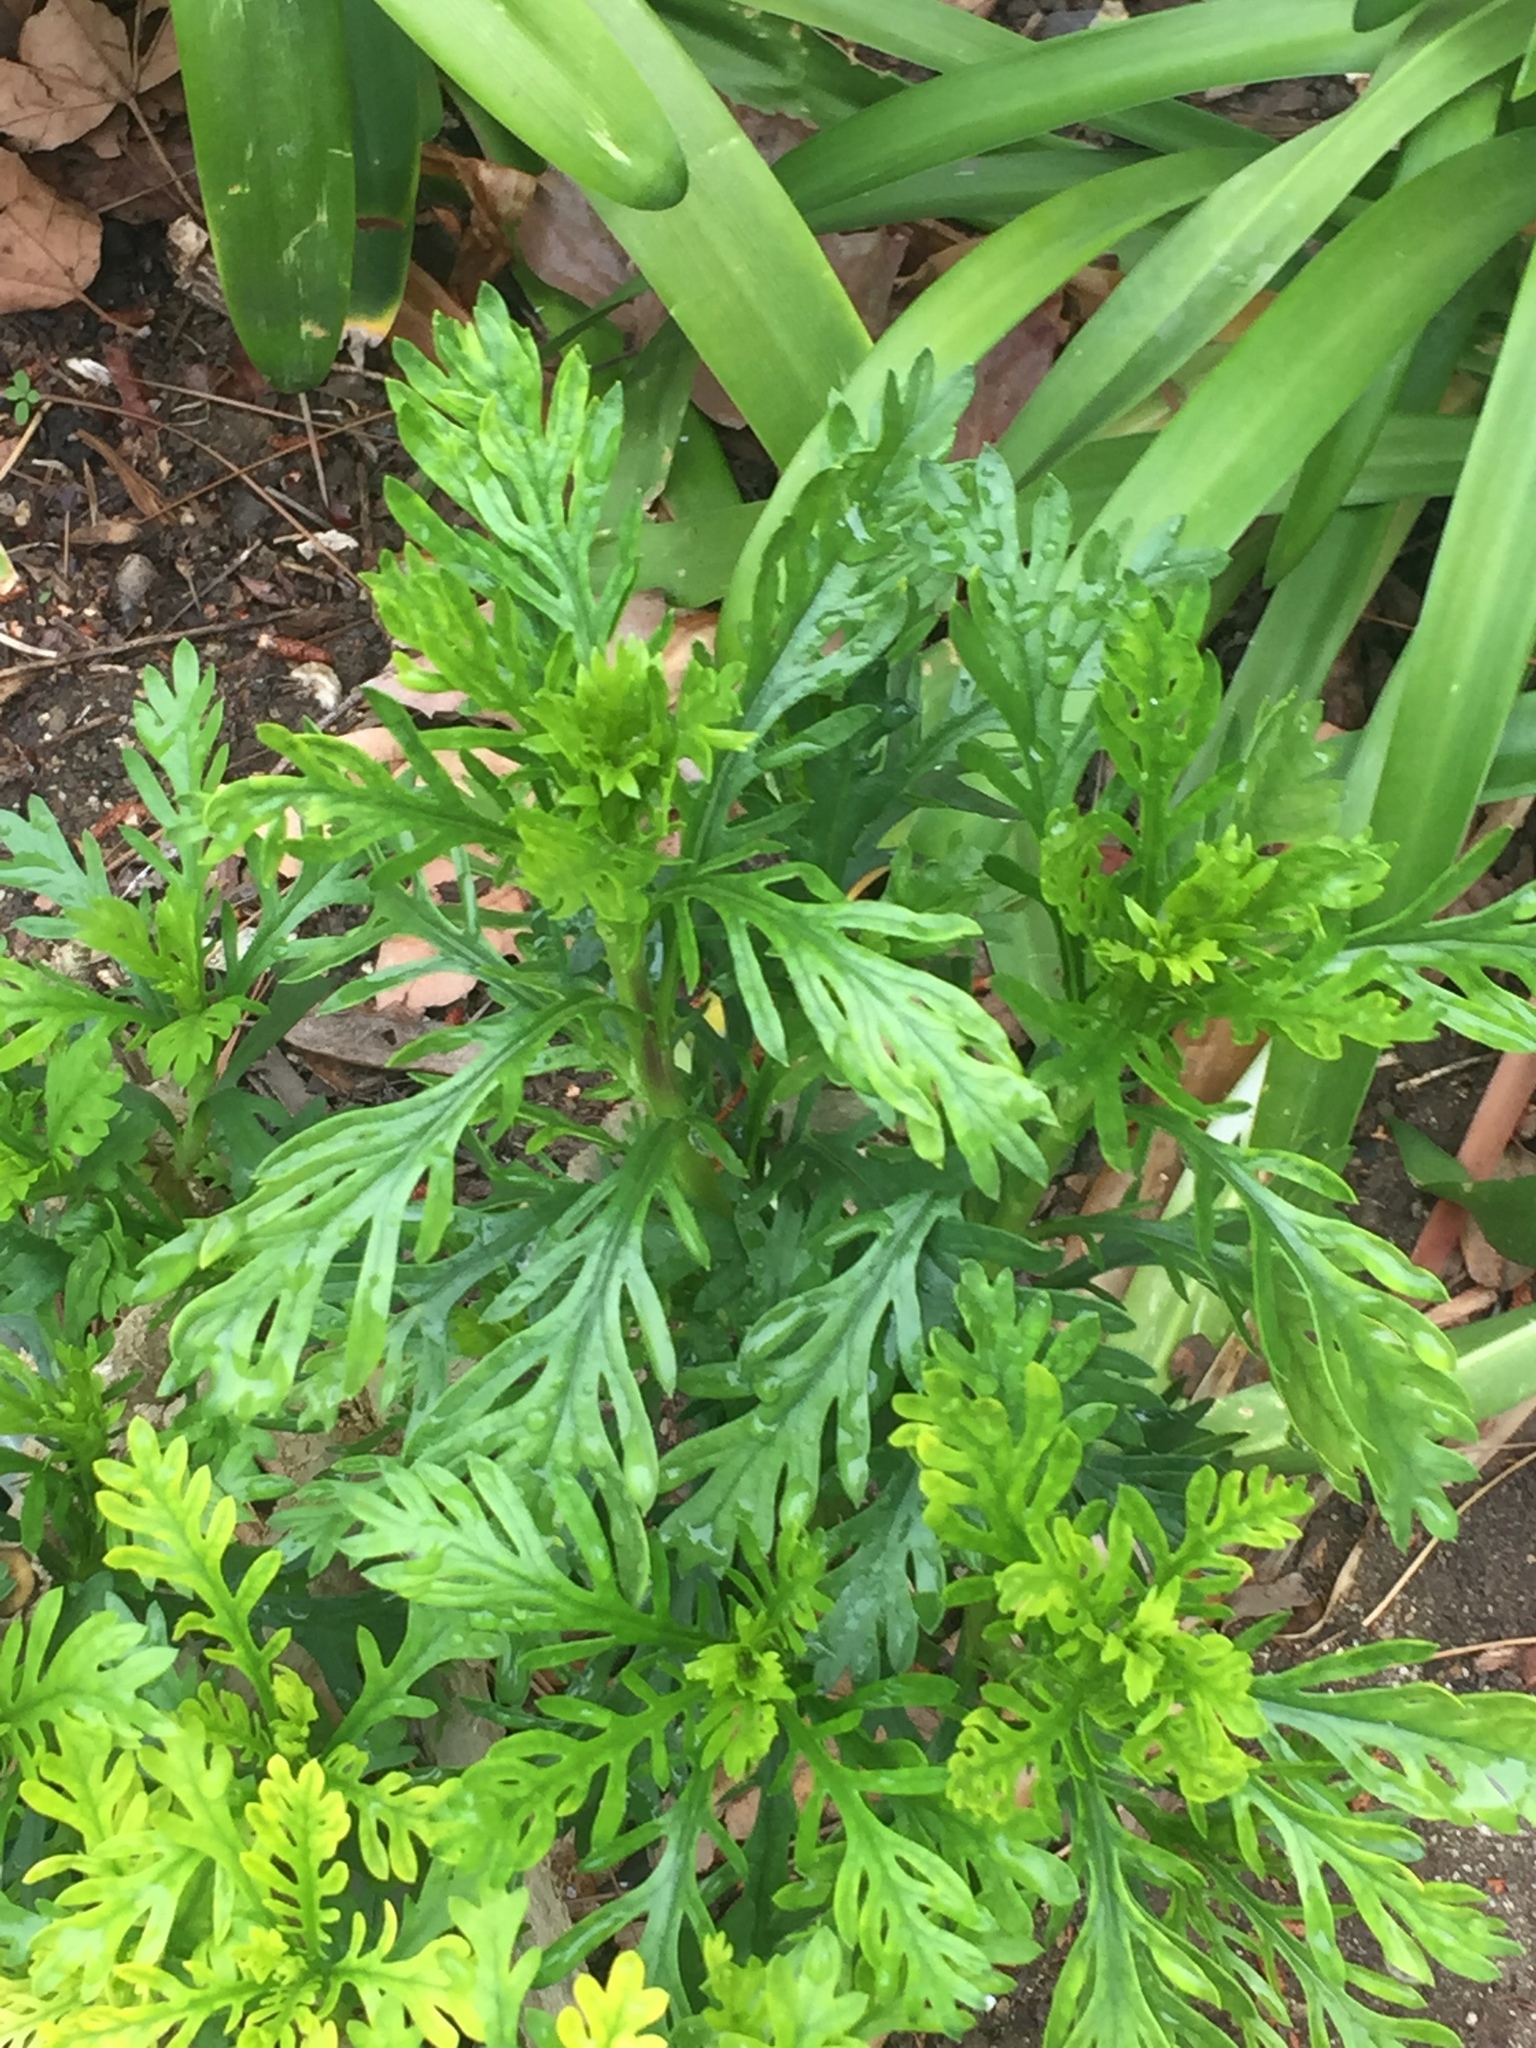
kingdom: Plantae
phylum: Tracheophyta
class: Magnoliopsida
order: Asterales
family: Asteraceae
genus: Glebionis
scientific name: Glebionis coronaria
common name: Crowndaisy
